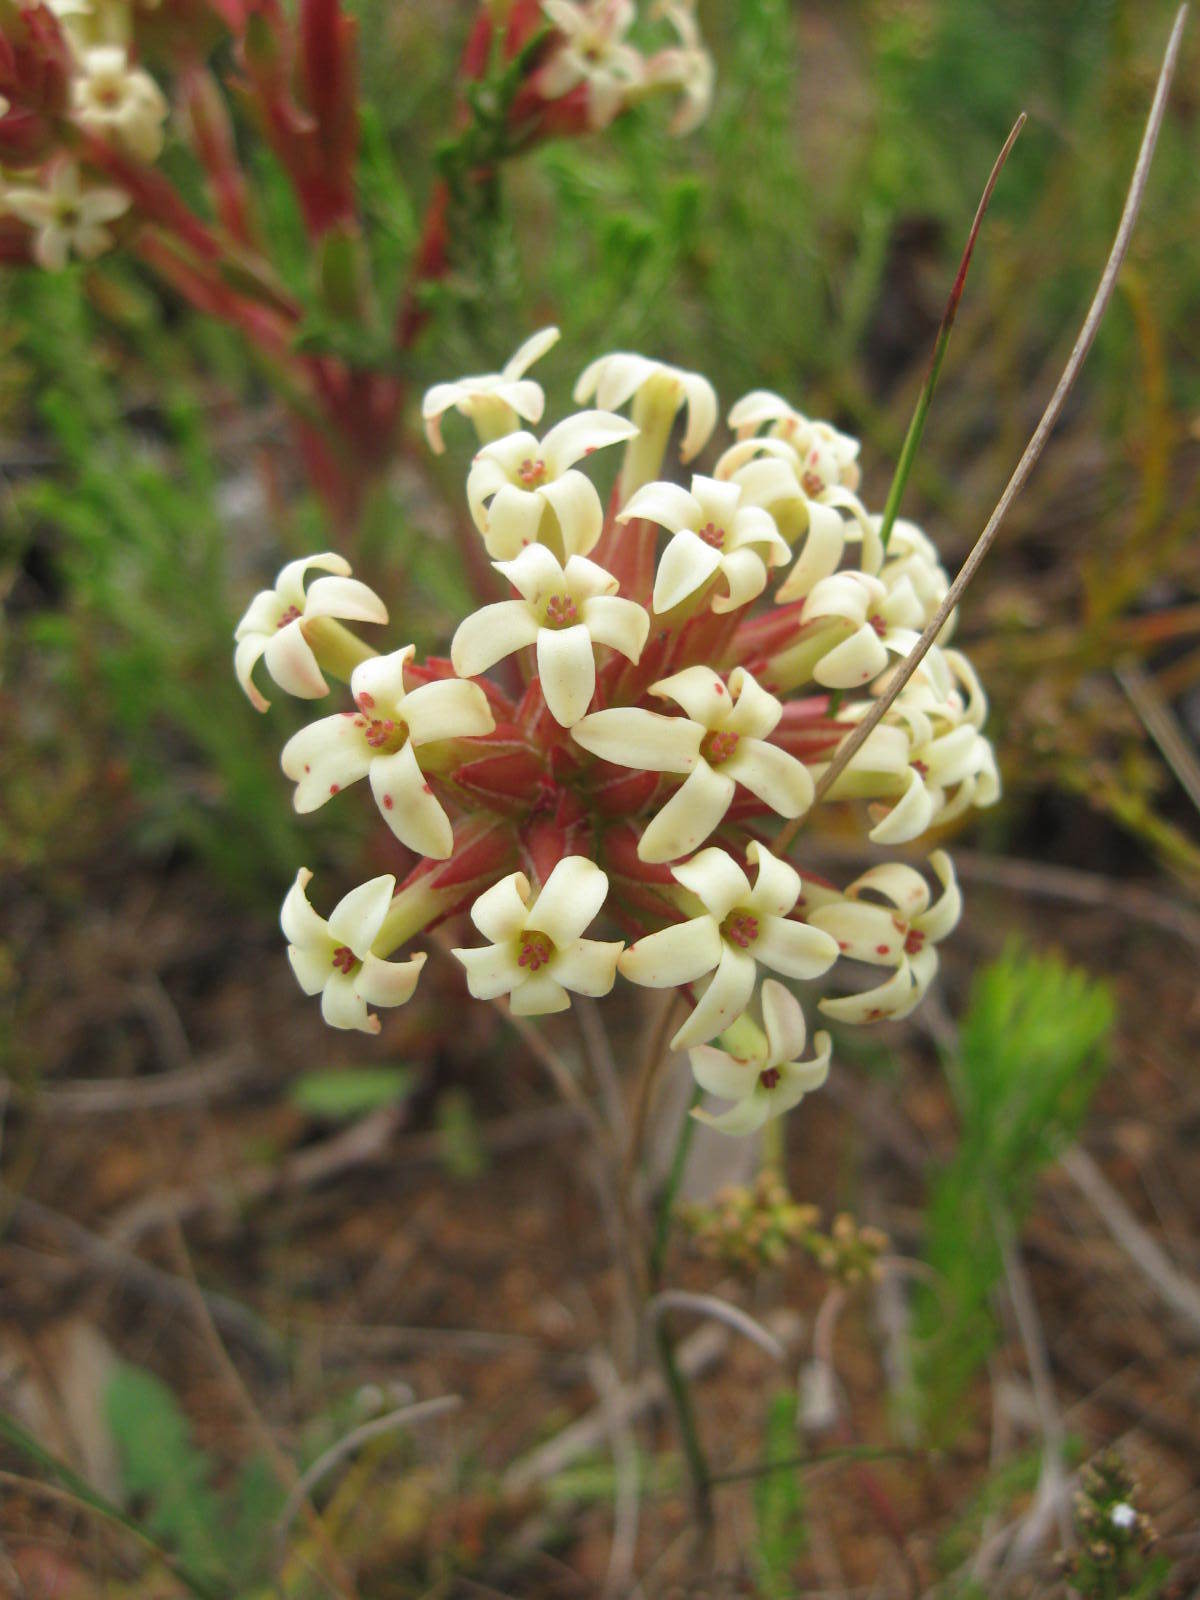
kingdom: Plantae
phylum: Tracheophyta
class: Magnoliopsida
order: Saxifragales
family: Crassulaceae
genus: Crassula
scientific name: Crassula fascicularis
